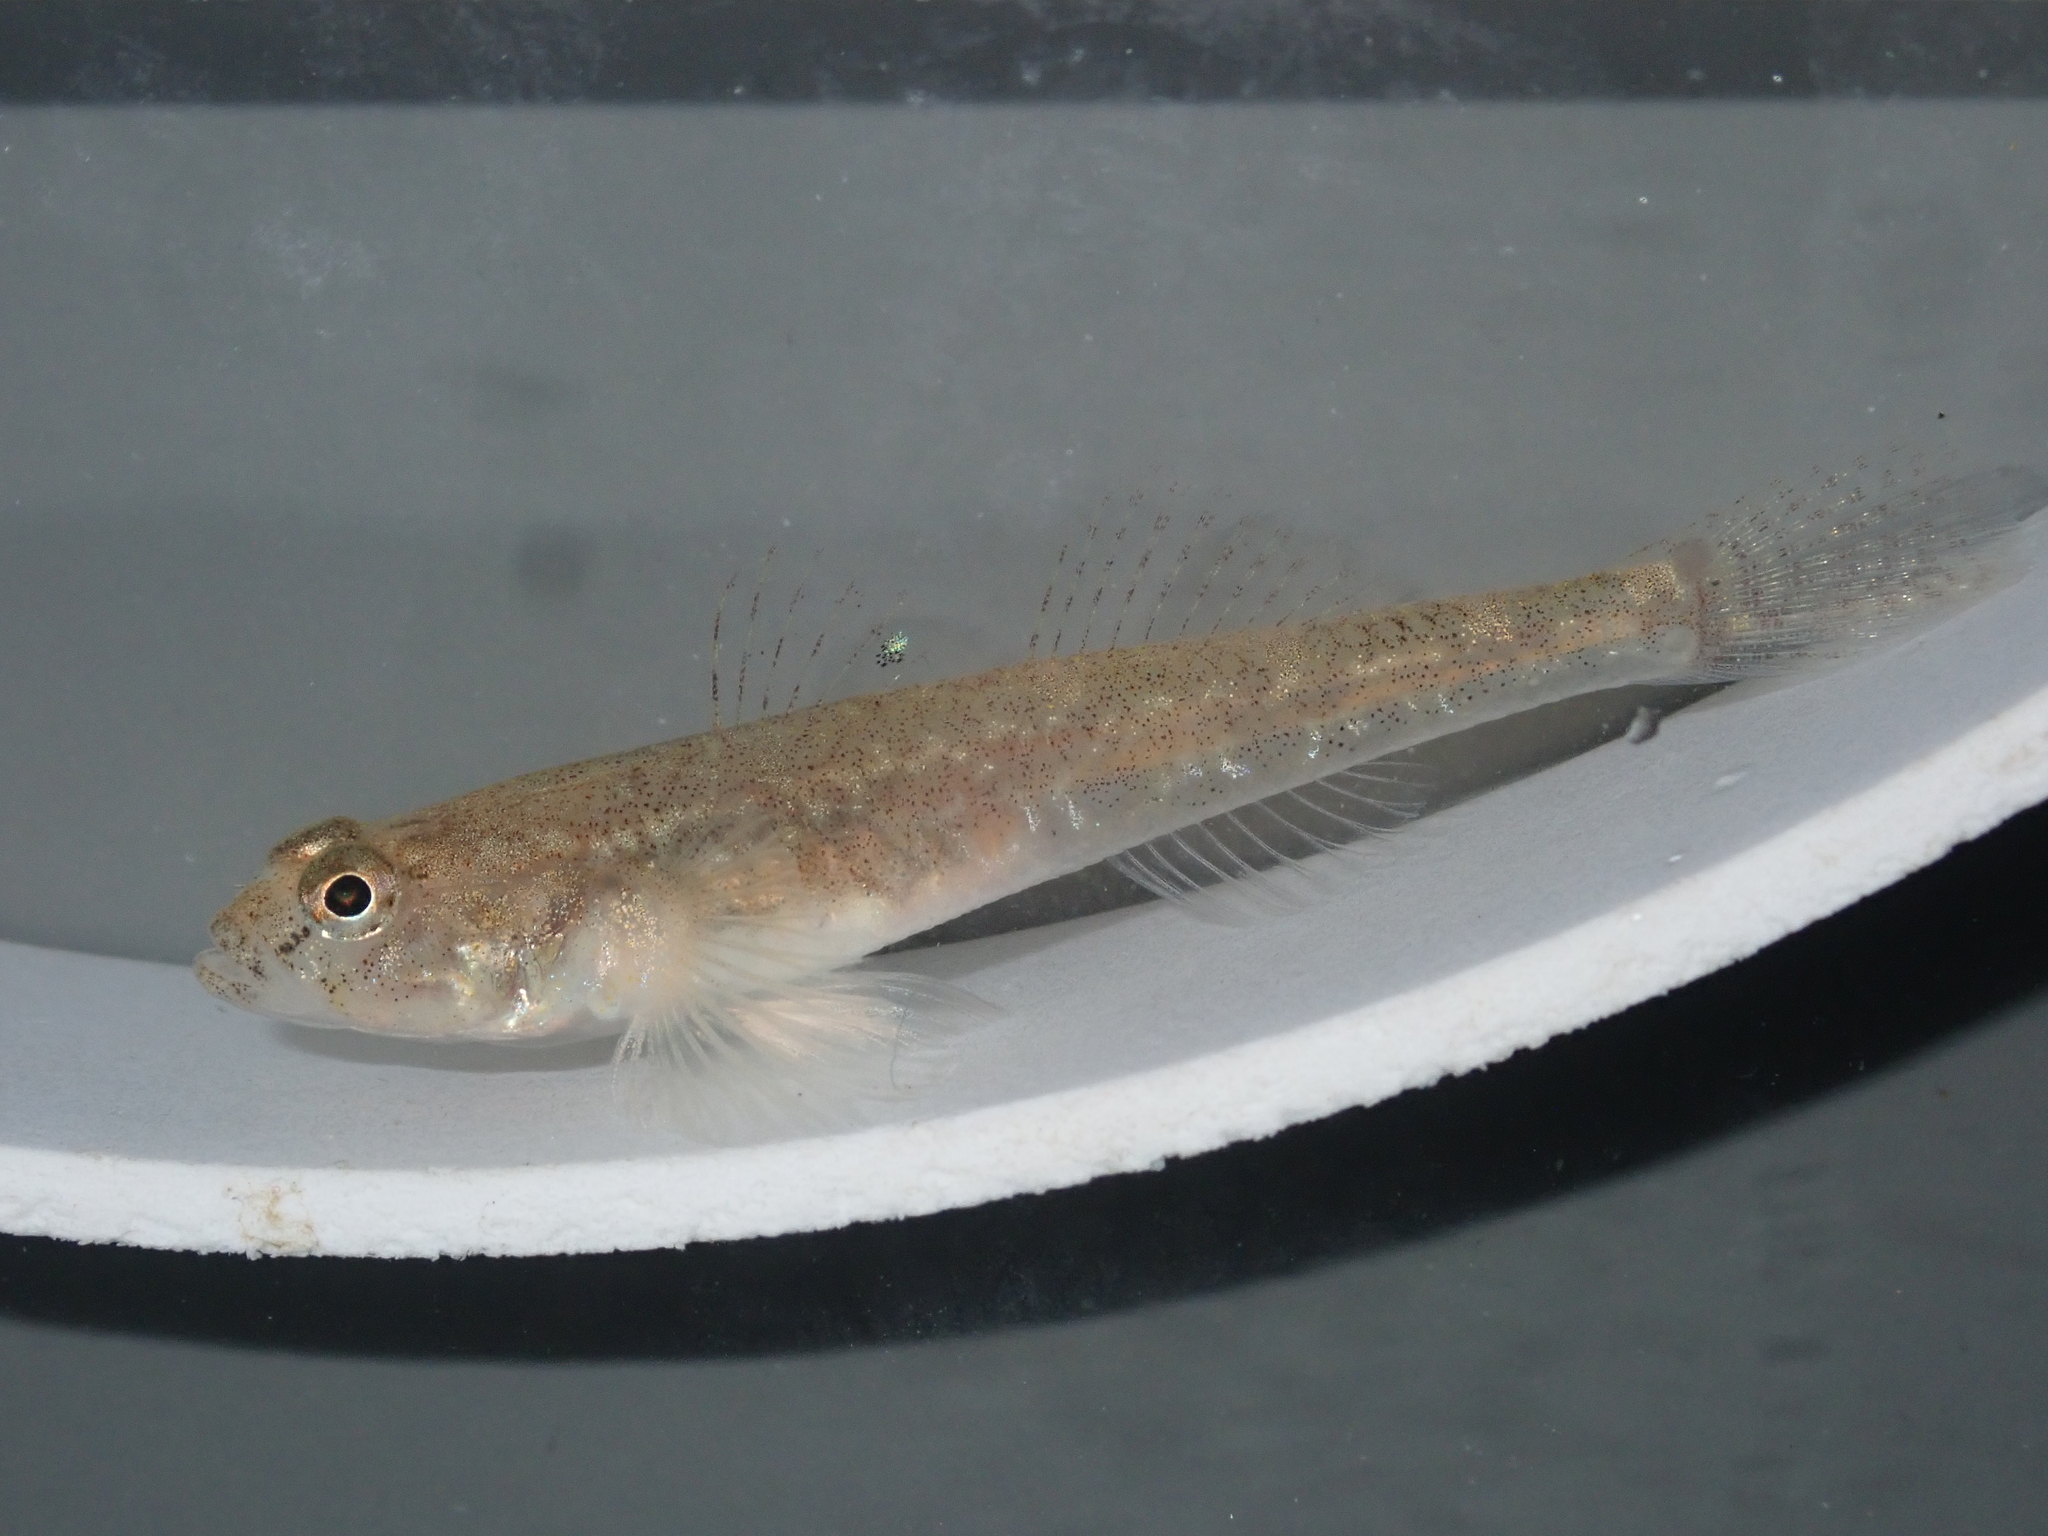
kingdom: Animalia
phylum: Chordata
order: Perciformes
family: Gobiidae
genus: Pomatoschistus
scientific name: Pomatoschistus microps
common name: Common goby
